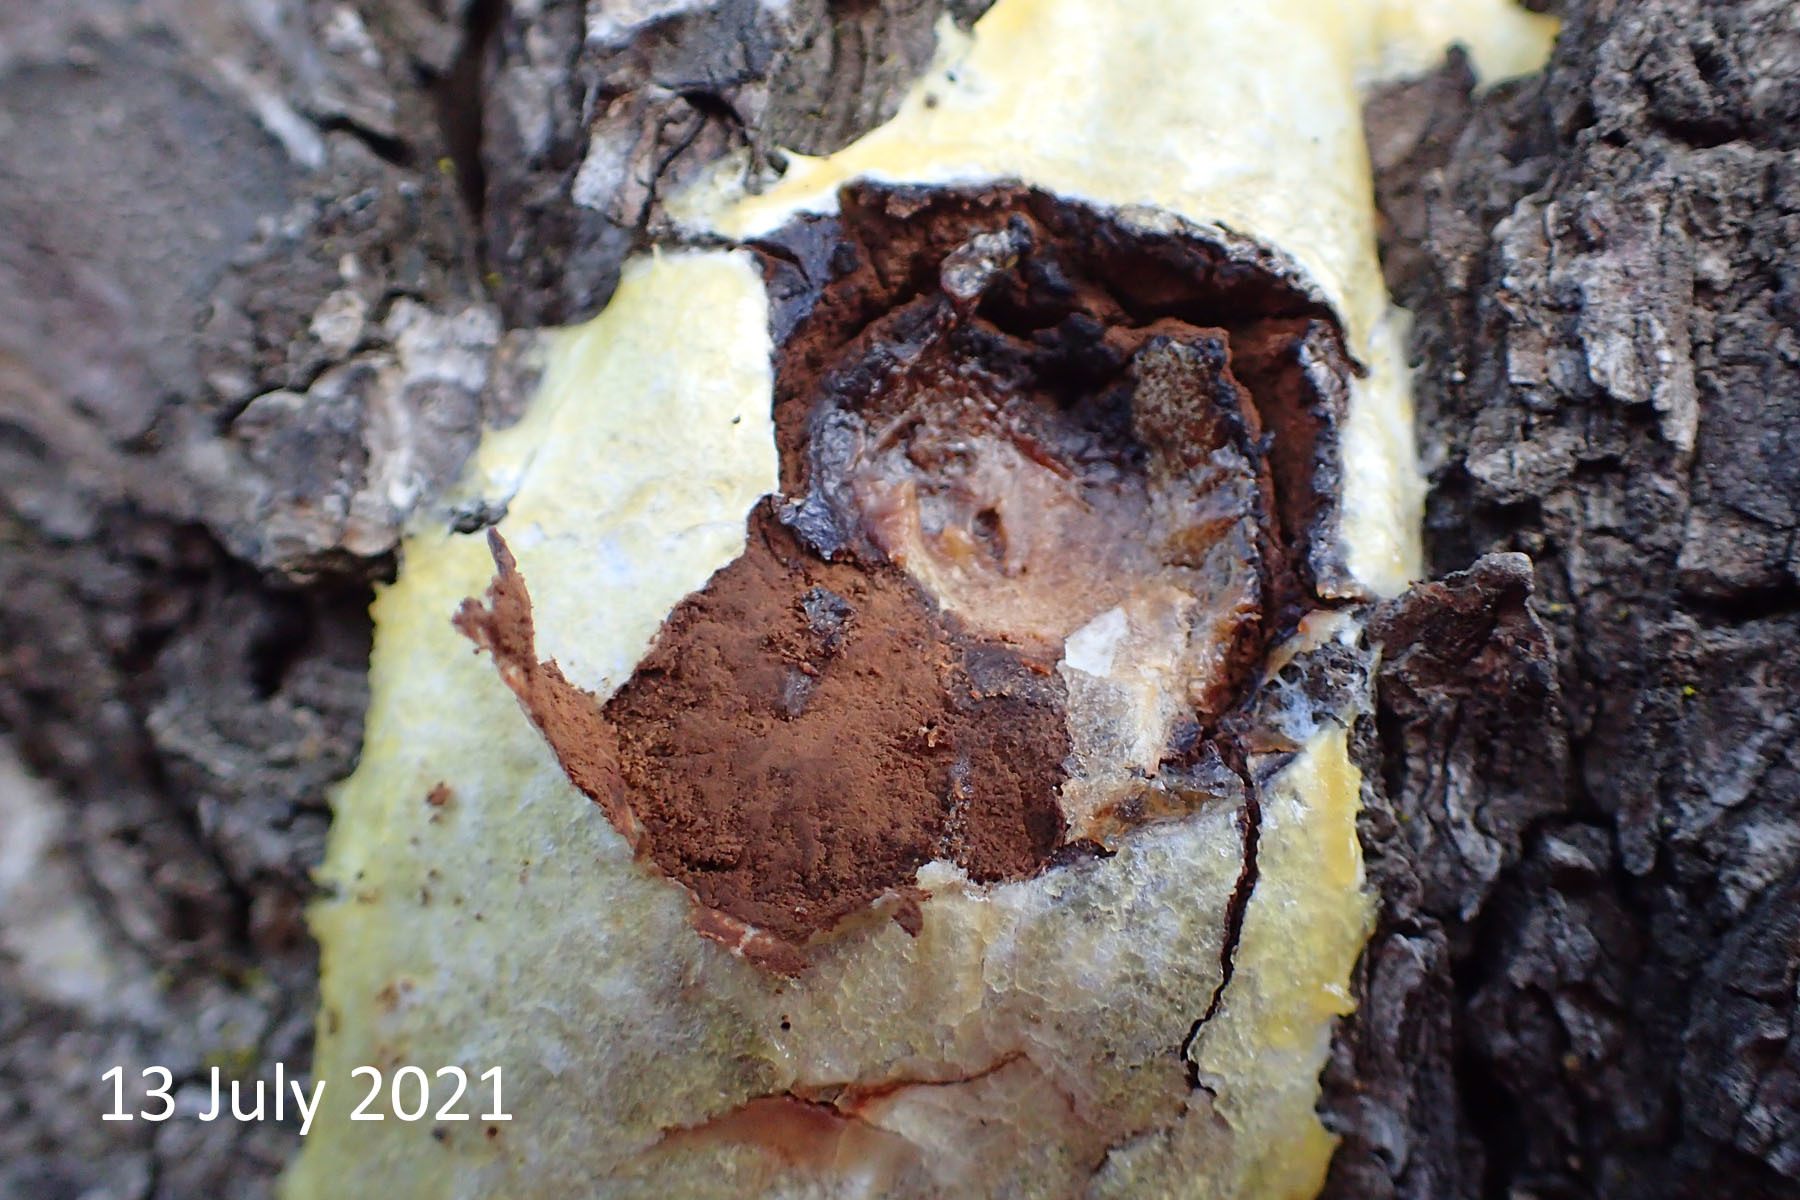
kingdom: Protozoa
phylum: Mycetozoa
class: Myxomycetes
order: Cribrariales
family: Tubiferaceae
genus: Reticularia
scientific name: Reticularia lycoperdon
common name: False puffball
